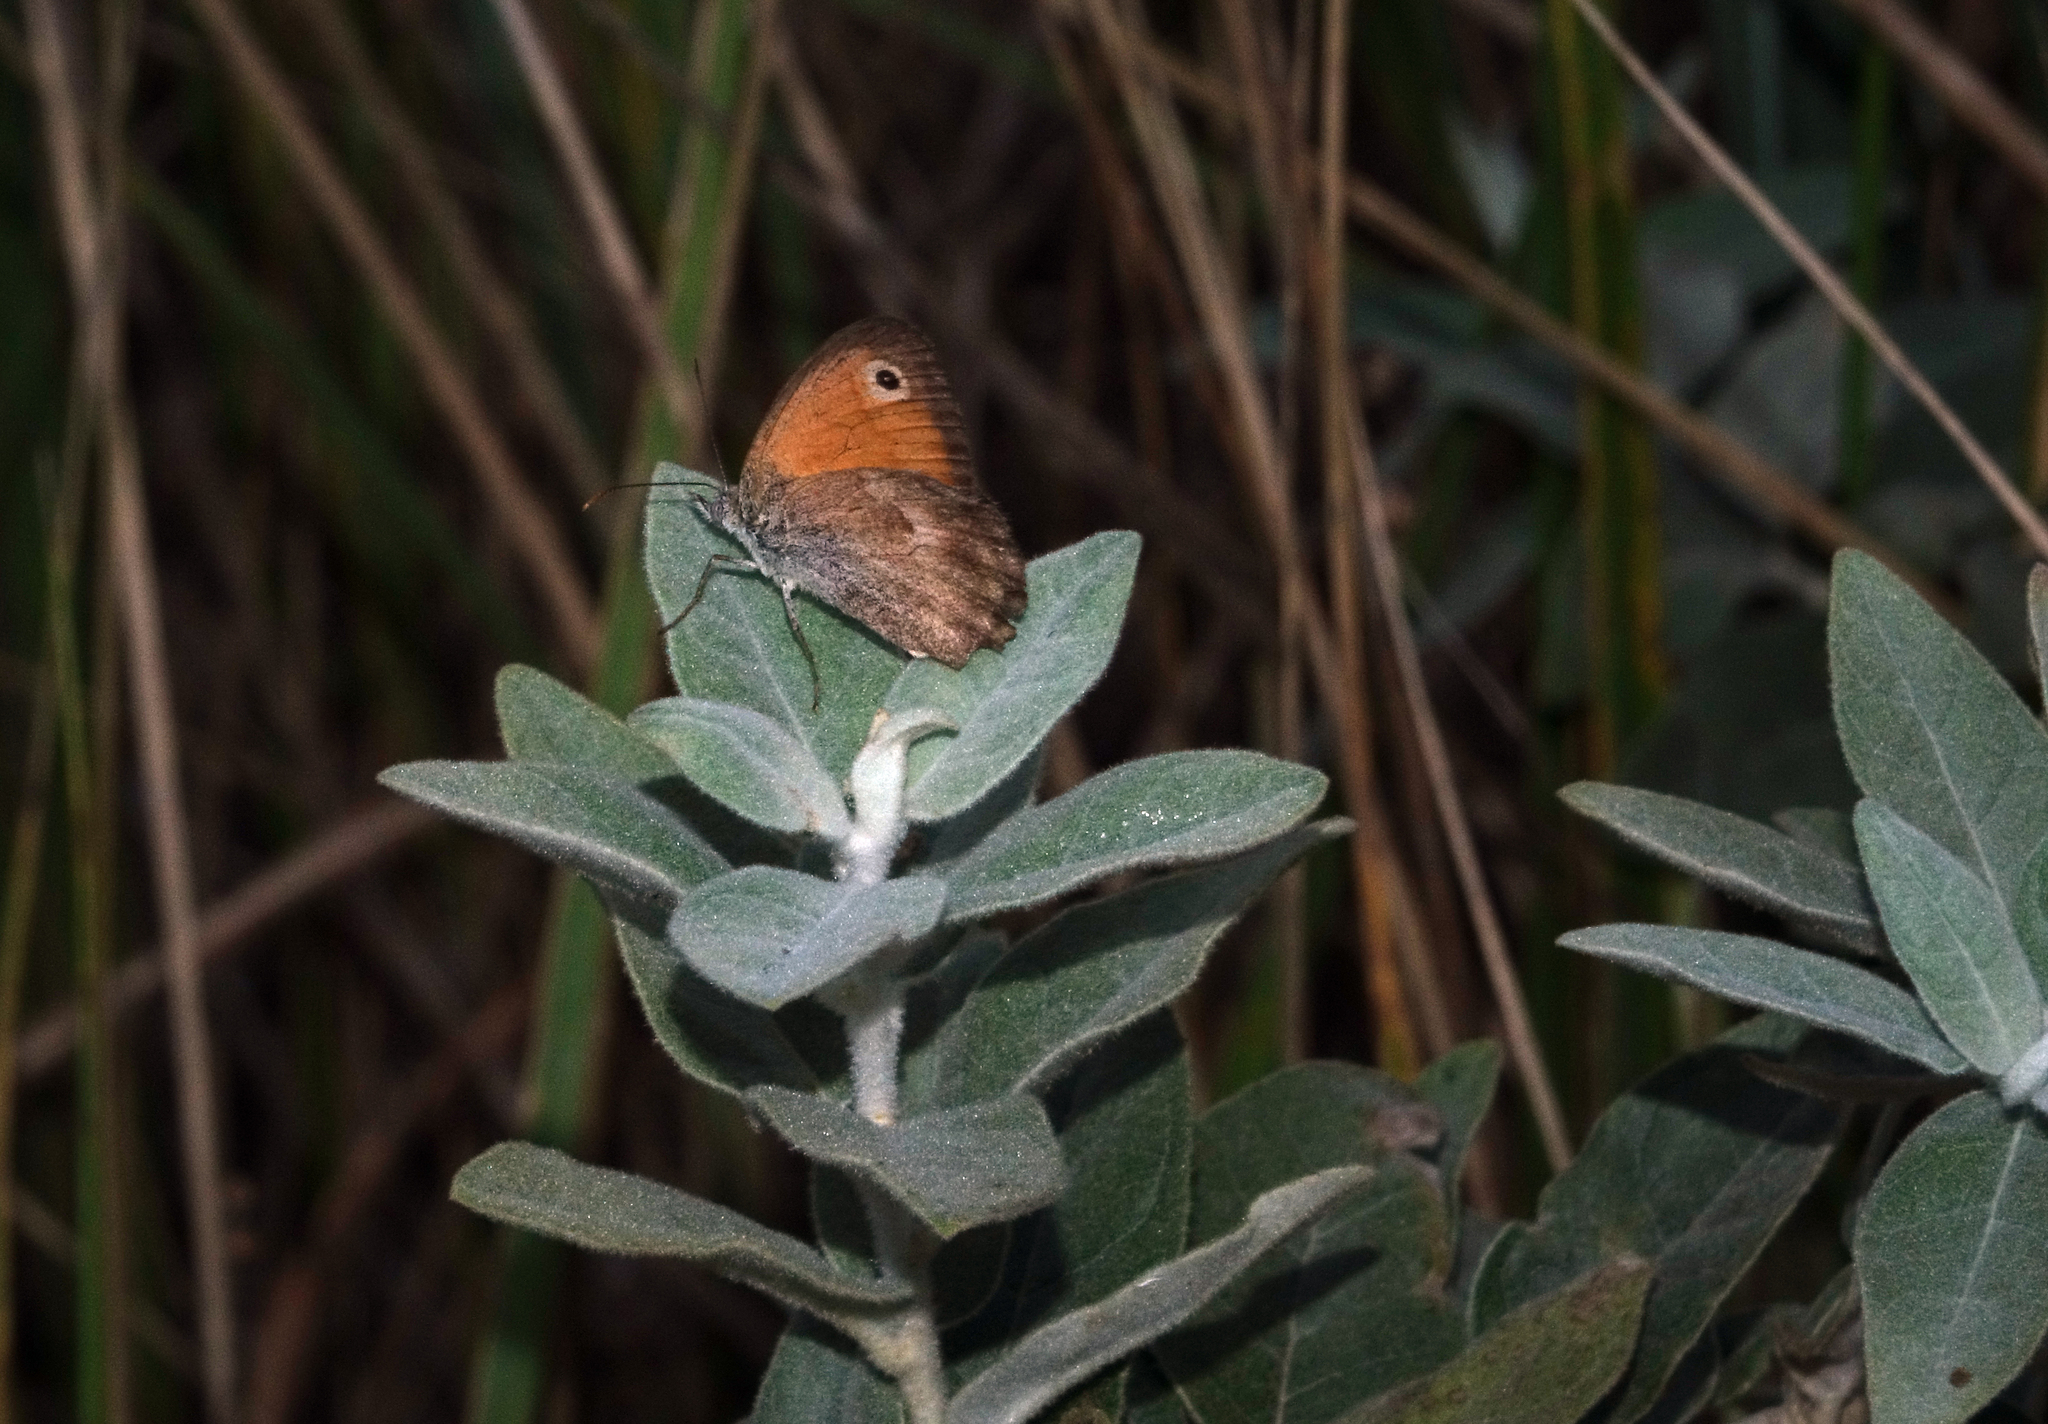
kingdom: Plantae
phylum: Tracheophyta
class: Magnoliopsida
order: Rosales
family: Elaeagnaceae
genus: Elaeagnus
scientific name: Elaeagnus angustifolia
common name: Russian olive
